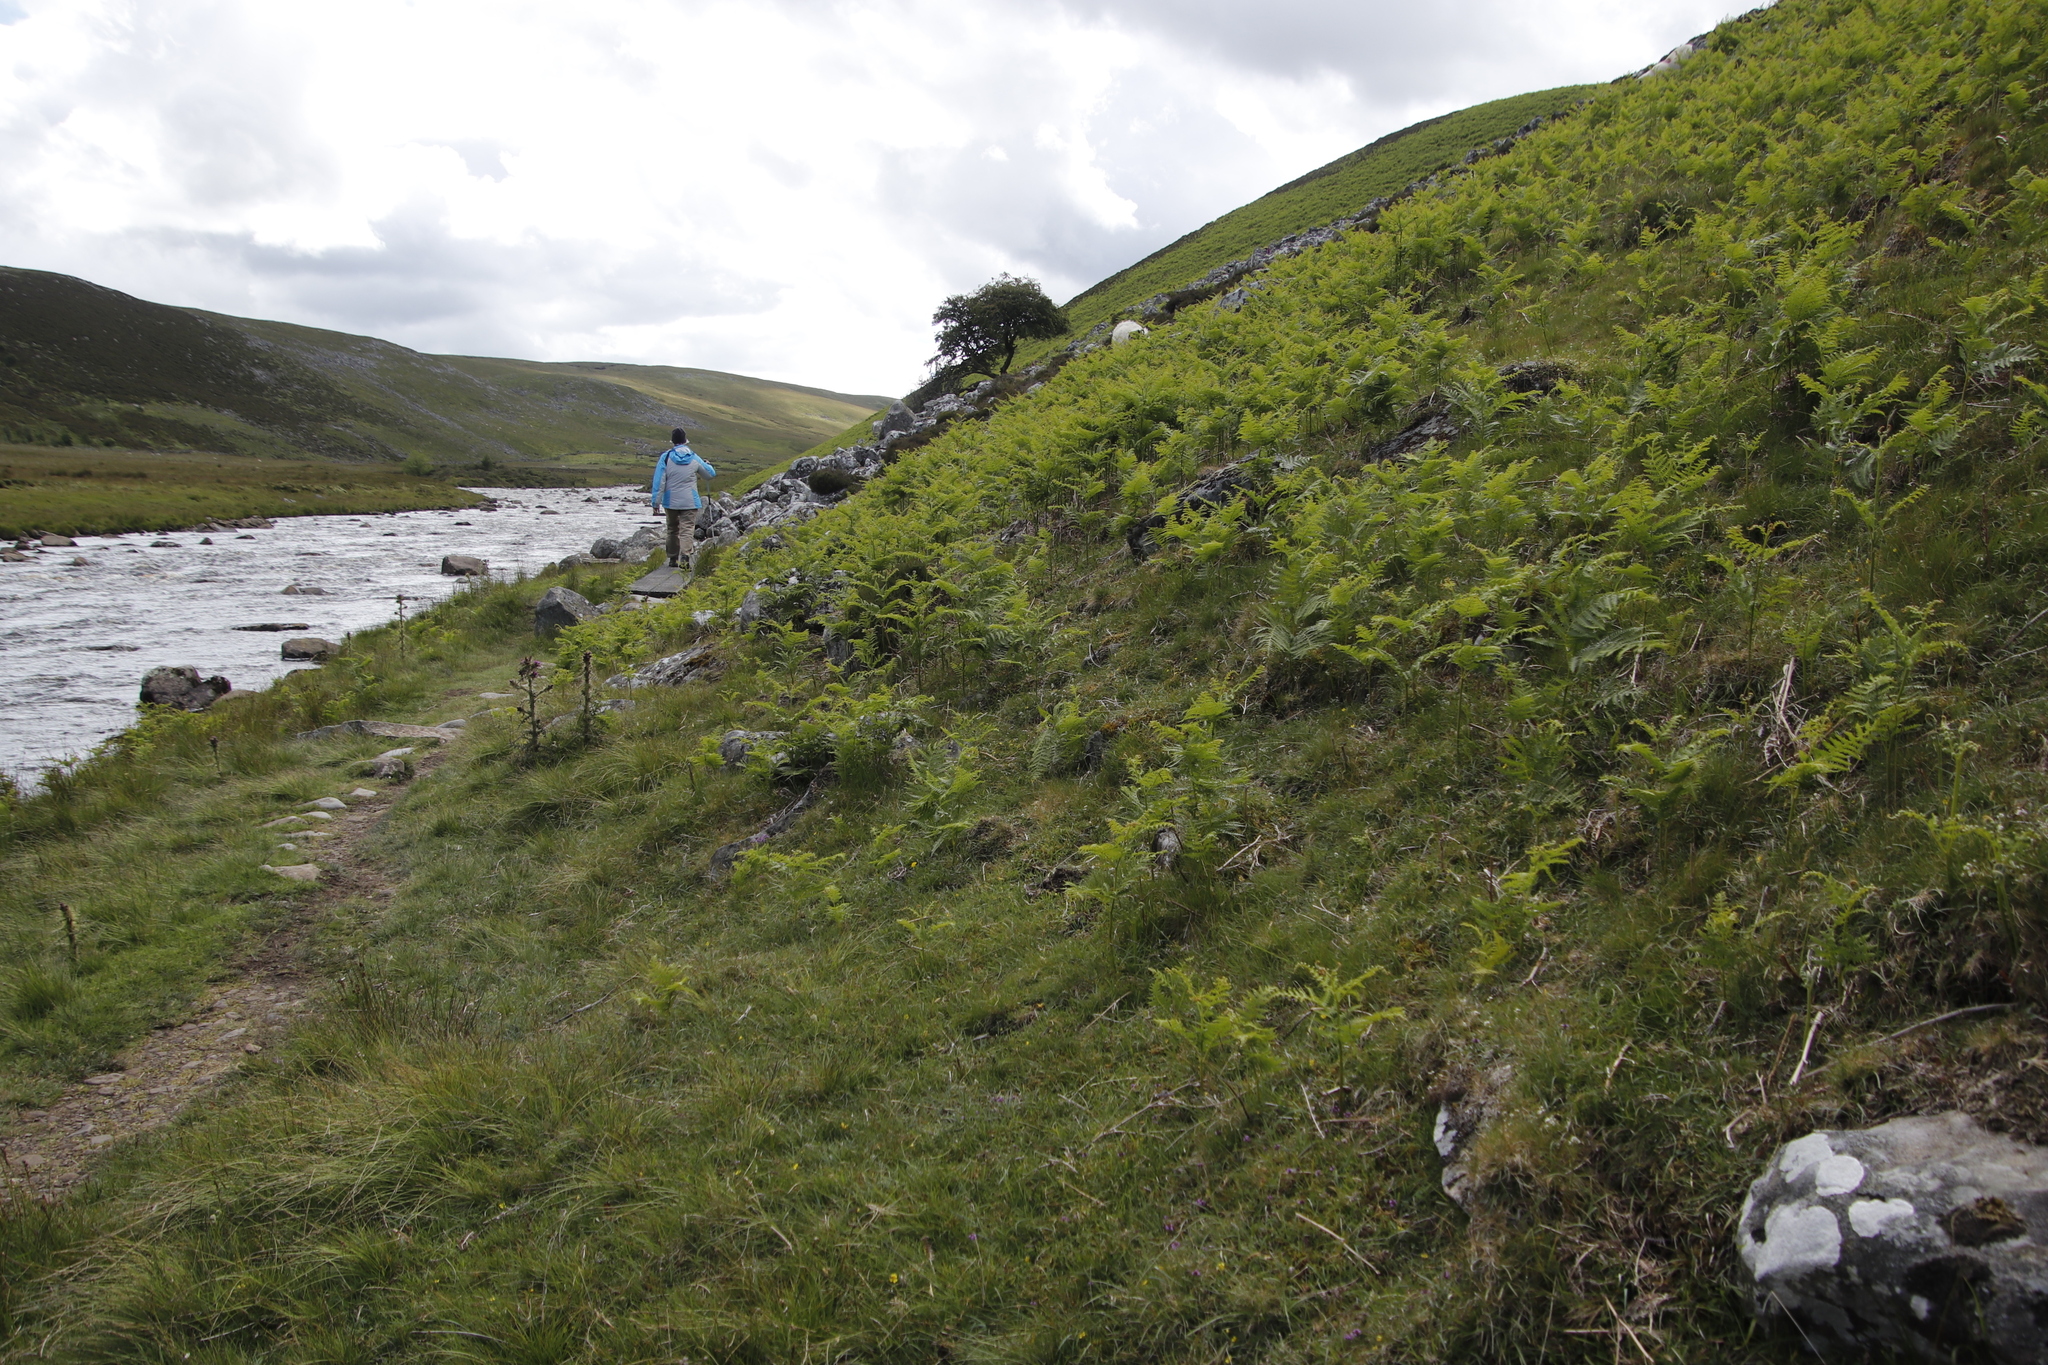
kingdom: Plantae
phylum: Tracheophyta
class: Polypodiopsida
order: Polypodiales
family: Dennstaedtiaceae
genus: Pteridium
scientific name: Pteridium aquilinum
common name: Bracken
